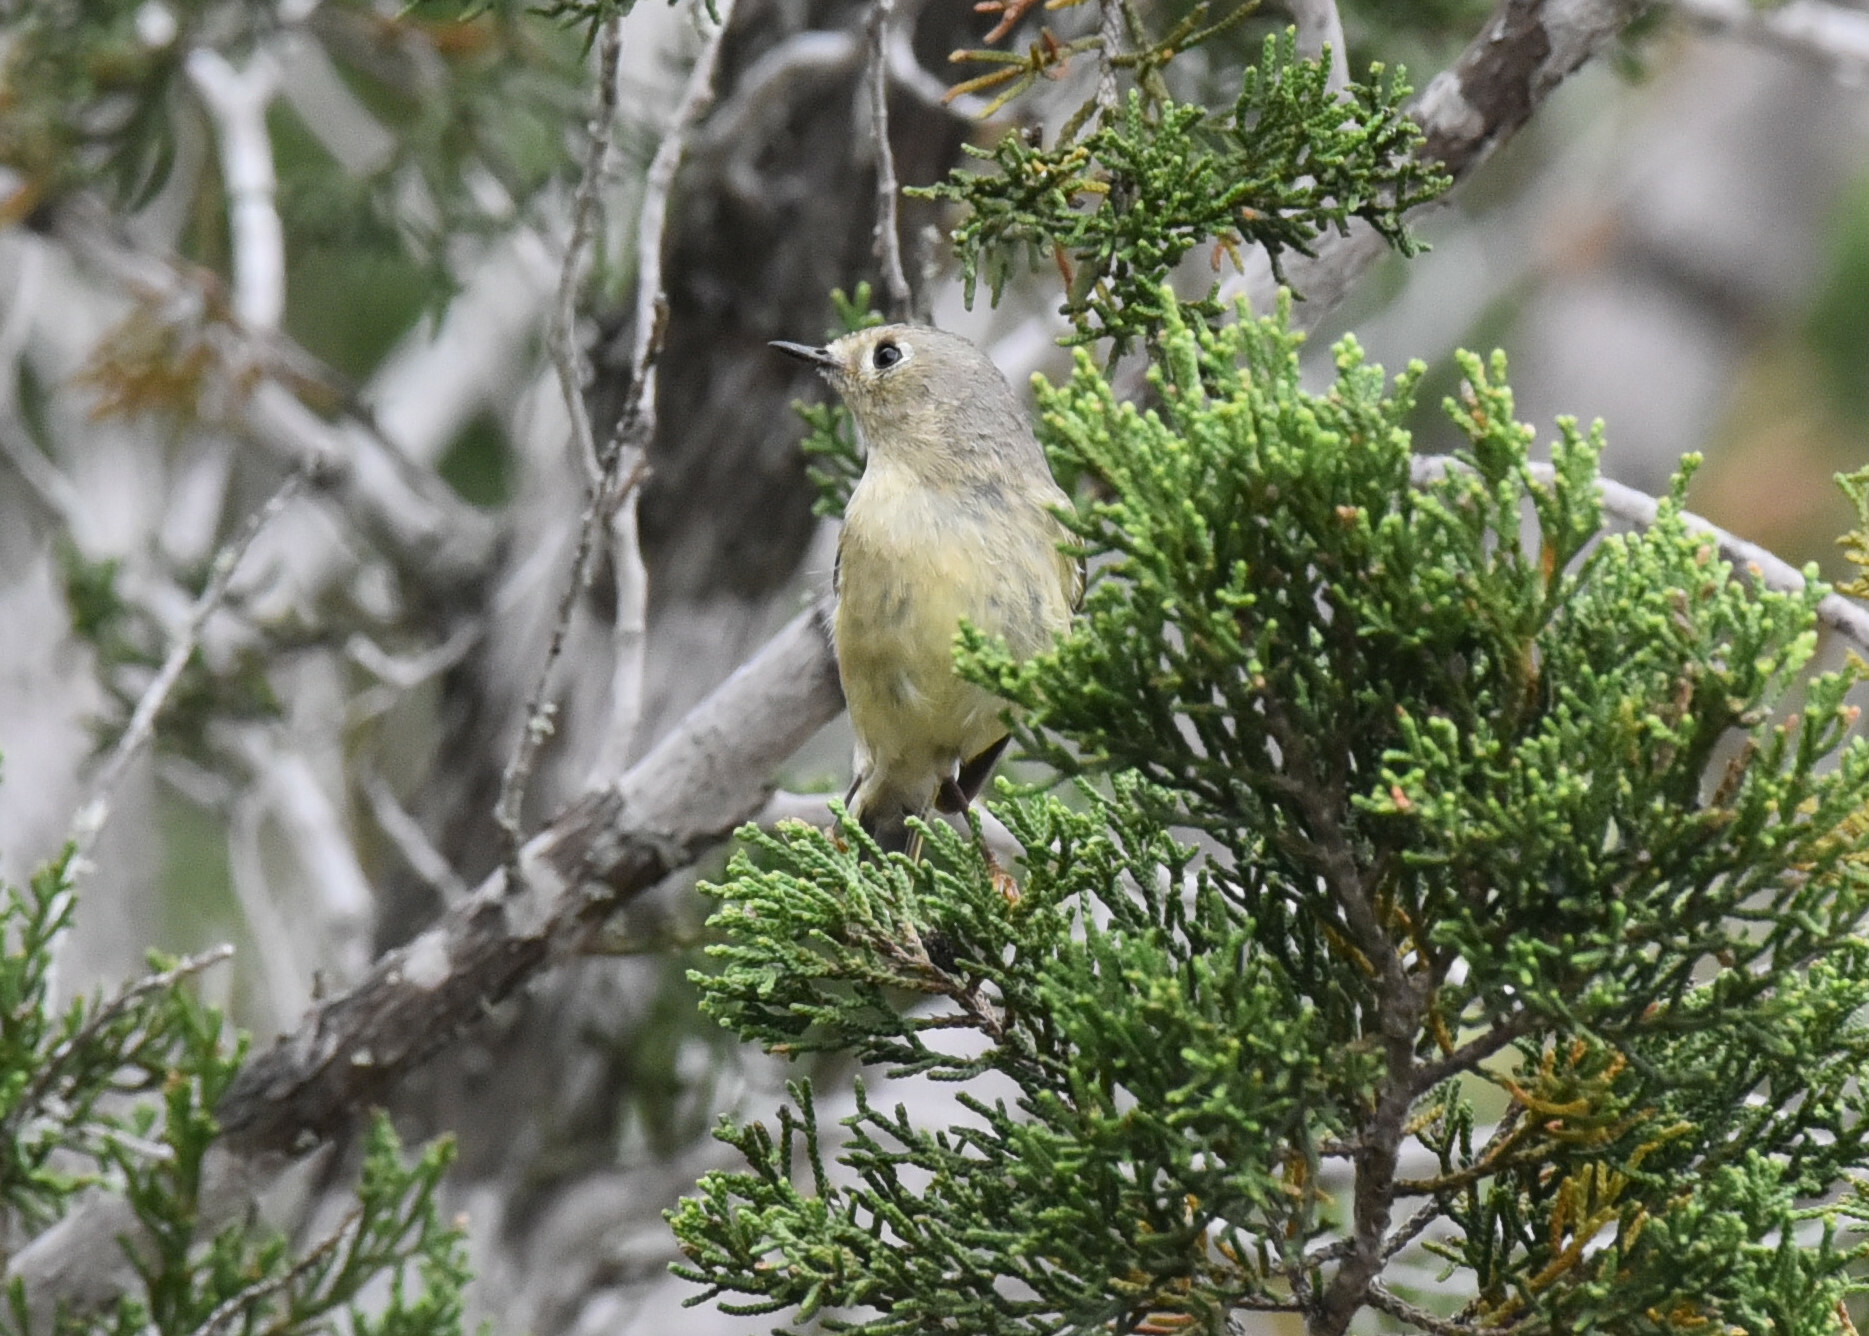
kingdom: Animalia
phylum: Chordata
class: Aves
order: Passeriformes
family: Vireonidae
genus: Vireo
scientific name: Vireo huttoni
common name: Hutton's vireo
